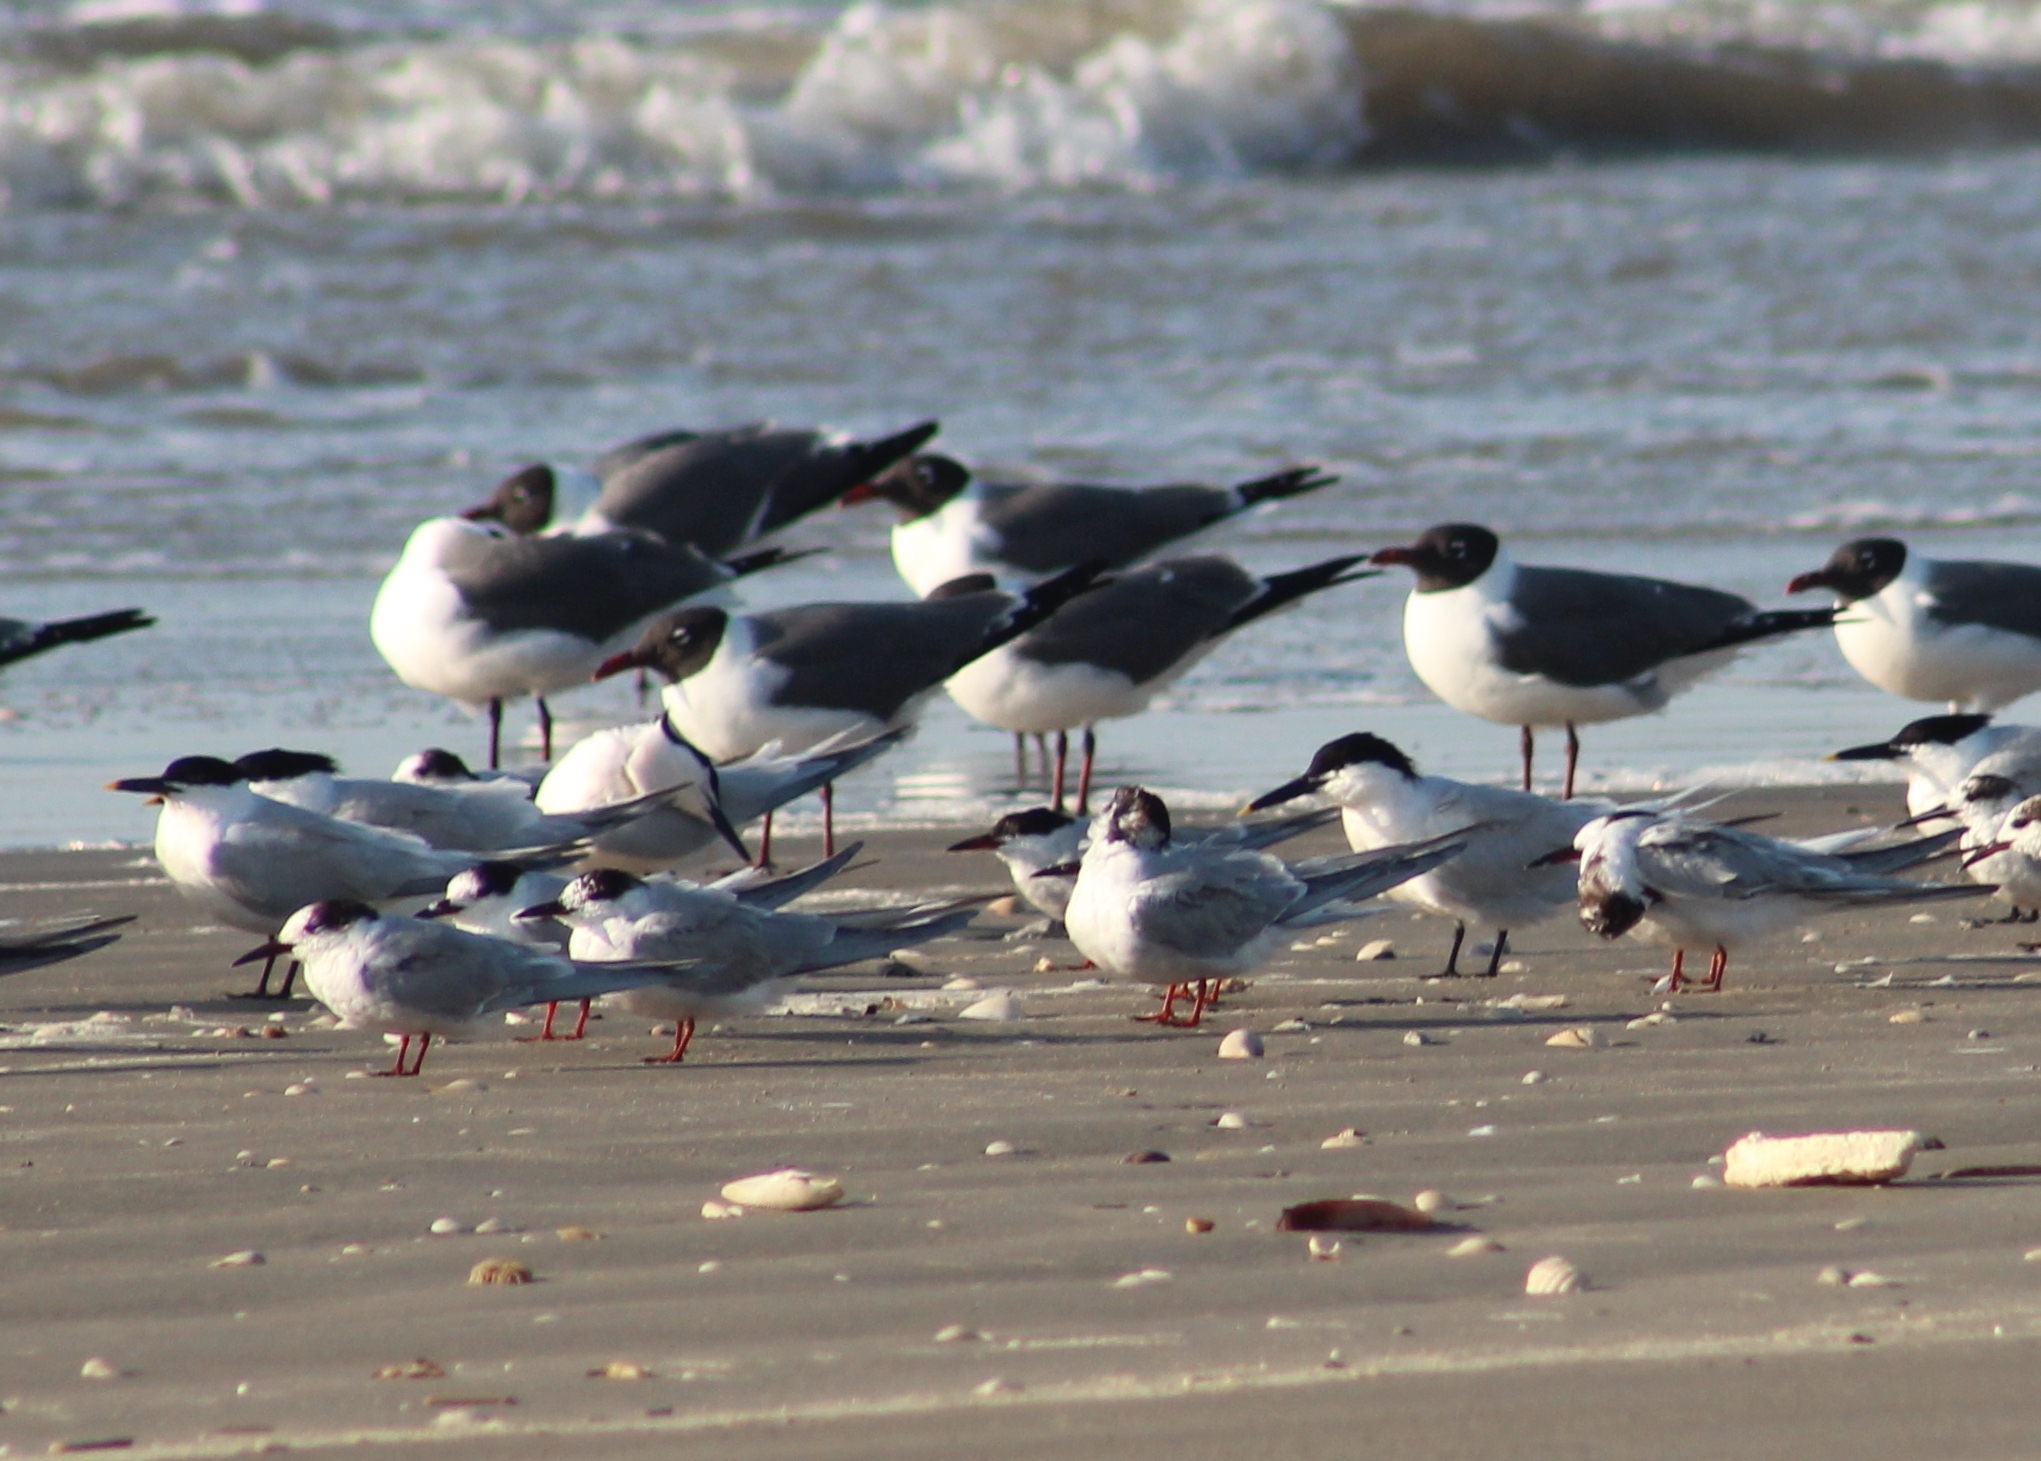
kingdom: Animalia
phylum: Chordata
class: Aves
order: Charadriiformes
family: Laridae
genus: Leucophaeus
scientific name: Leucophaeus atricilla
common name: Laughing gull
